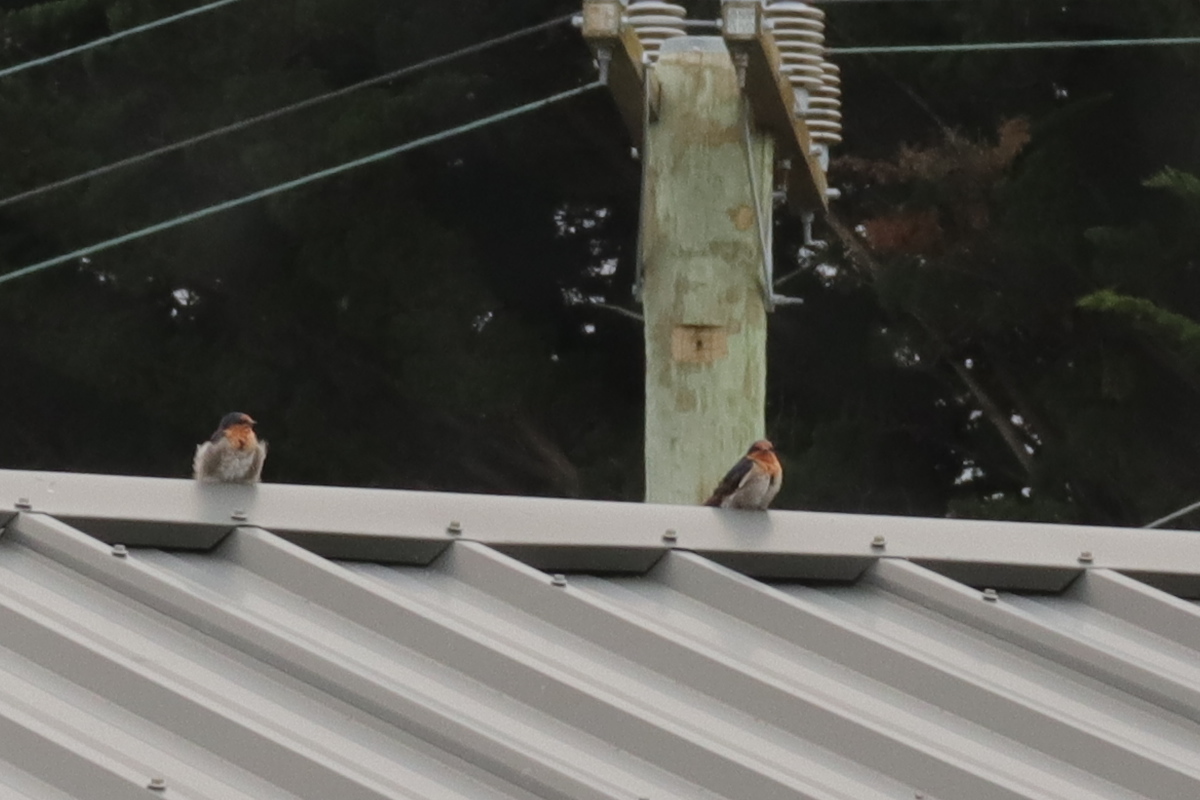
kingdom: Animalia
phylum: Chordata
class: Aves
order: Passeriformes
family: Hirundinidae
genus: Hirundo
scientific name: Hirundo neoxena
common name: Welcome swallow
